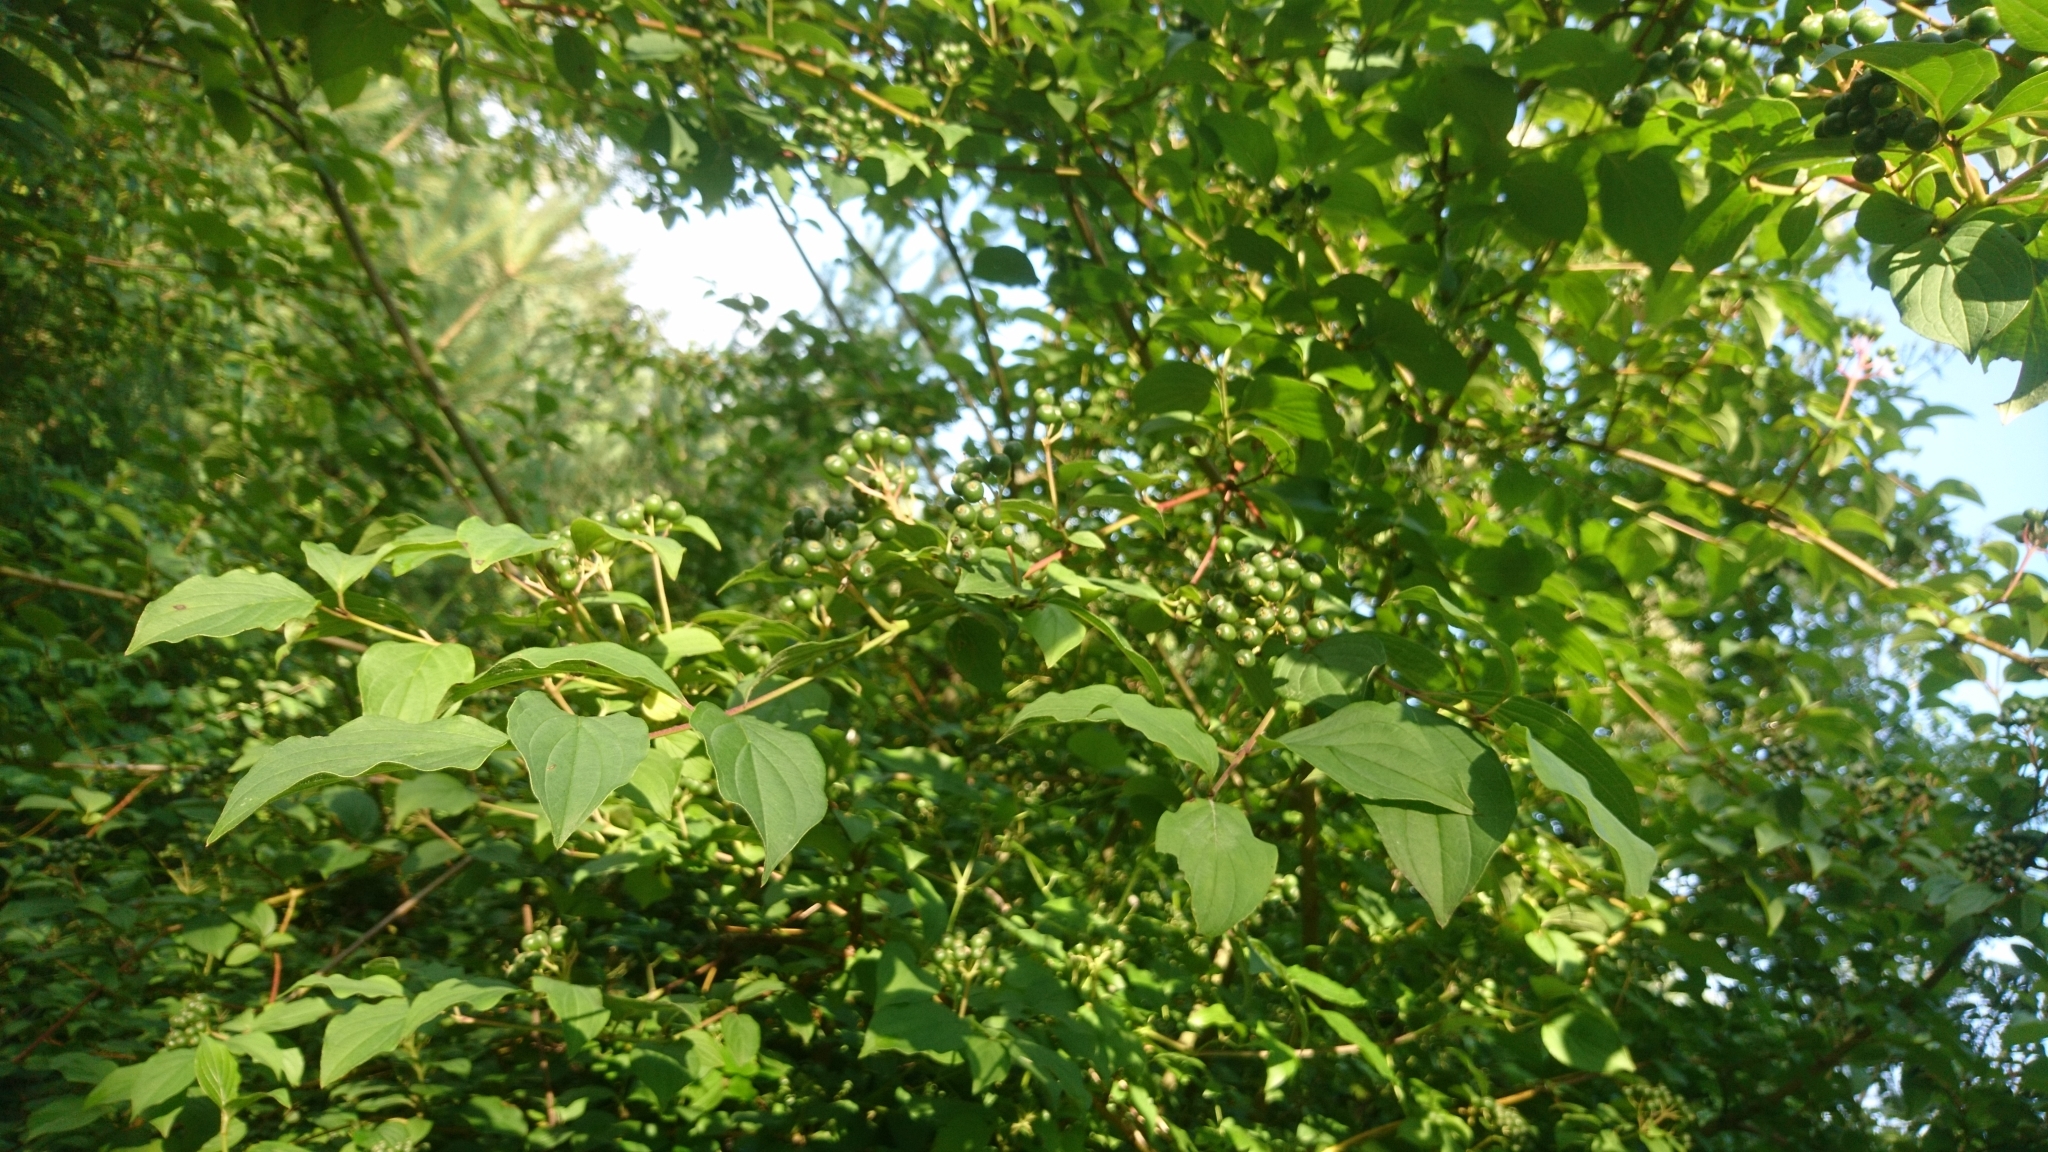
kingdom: Plantae
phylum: Tracheophyta
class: Magnoliopsida
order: Cornales
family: Cornaceae
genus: Cornus
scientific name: Cornus sanguinea
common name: Dogwood
